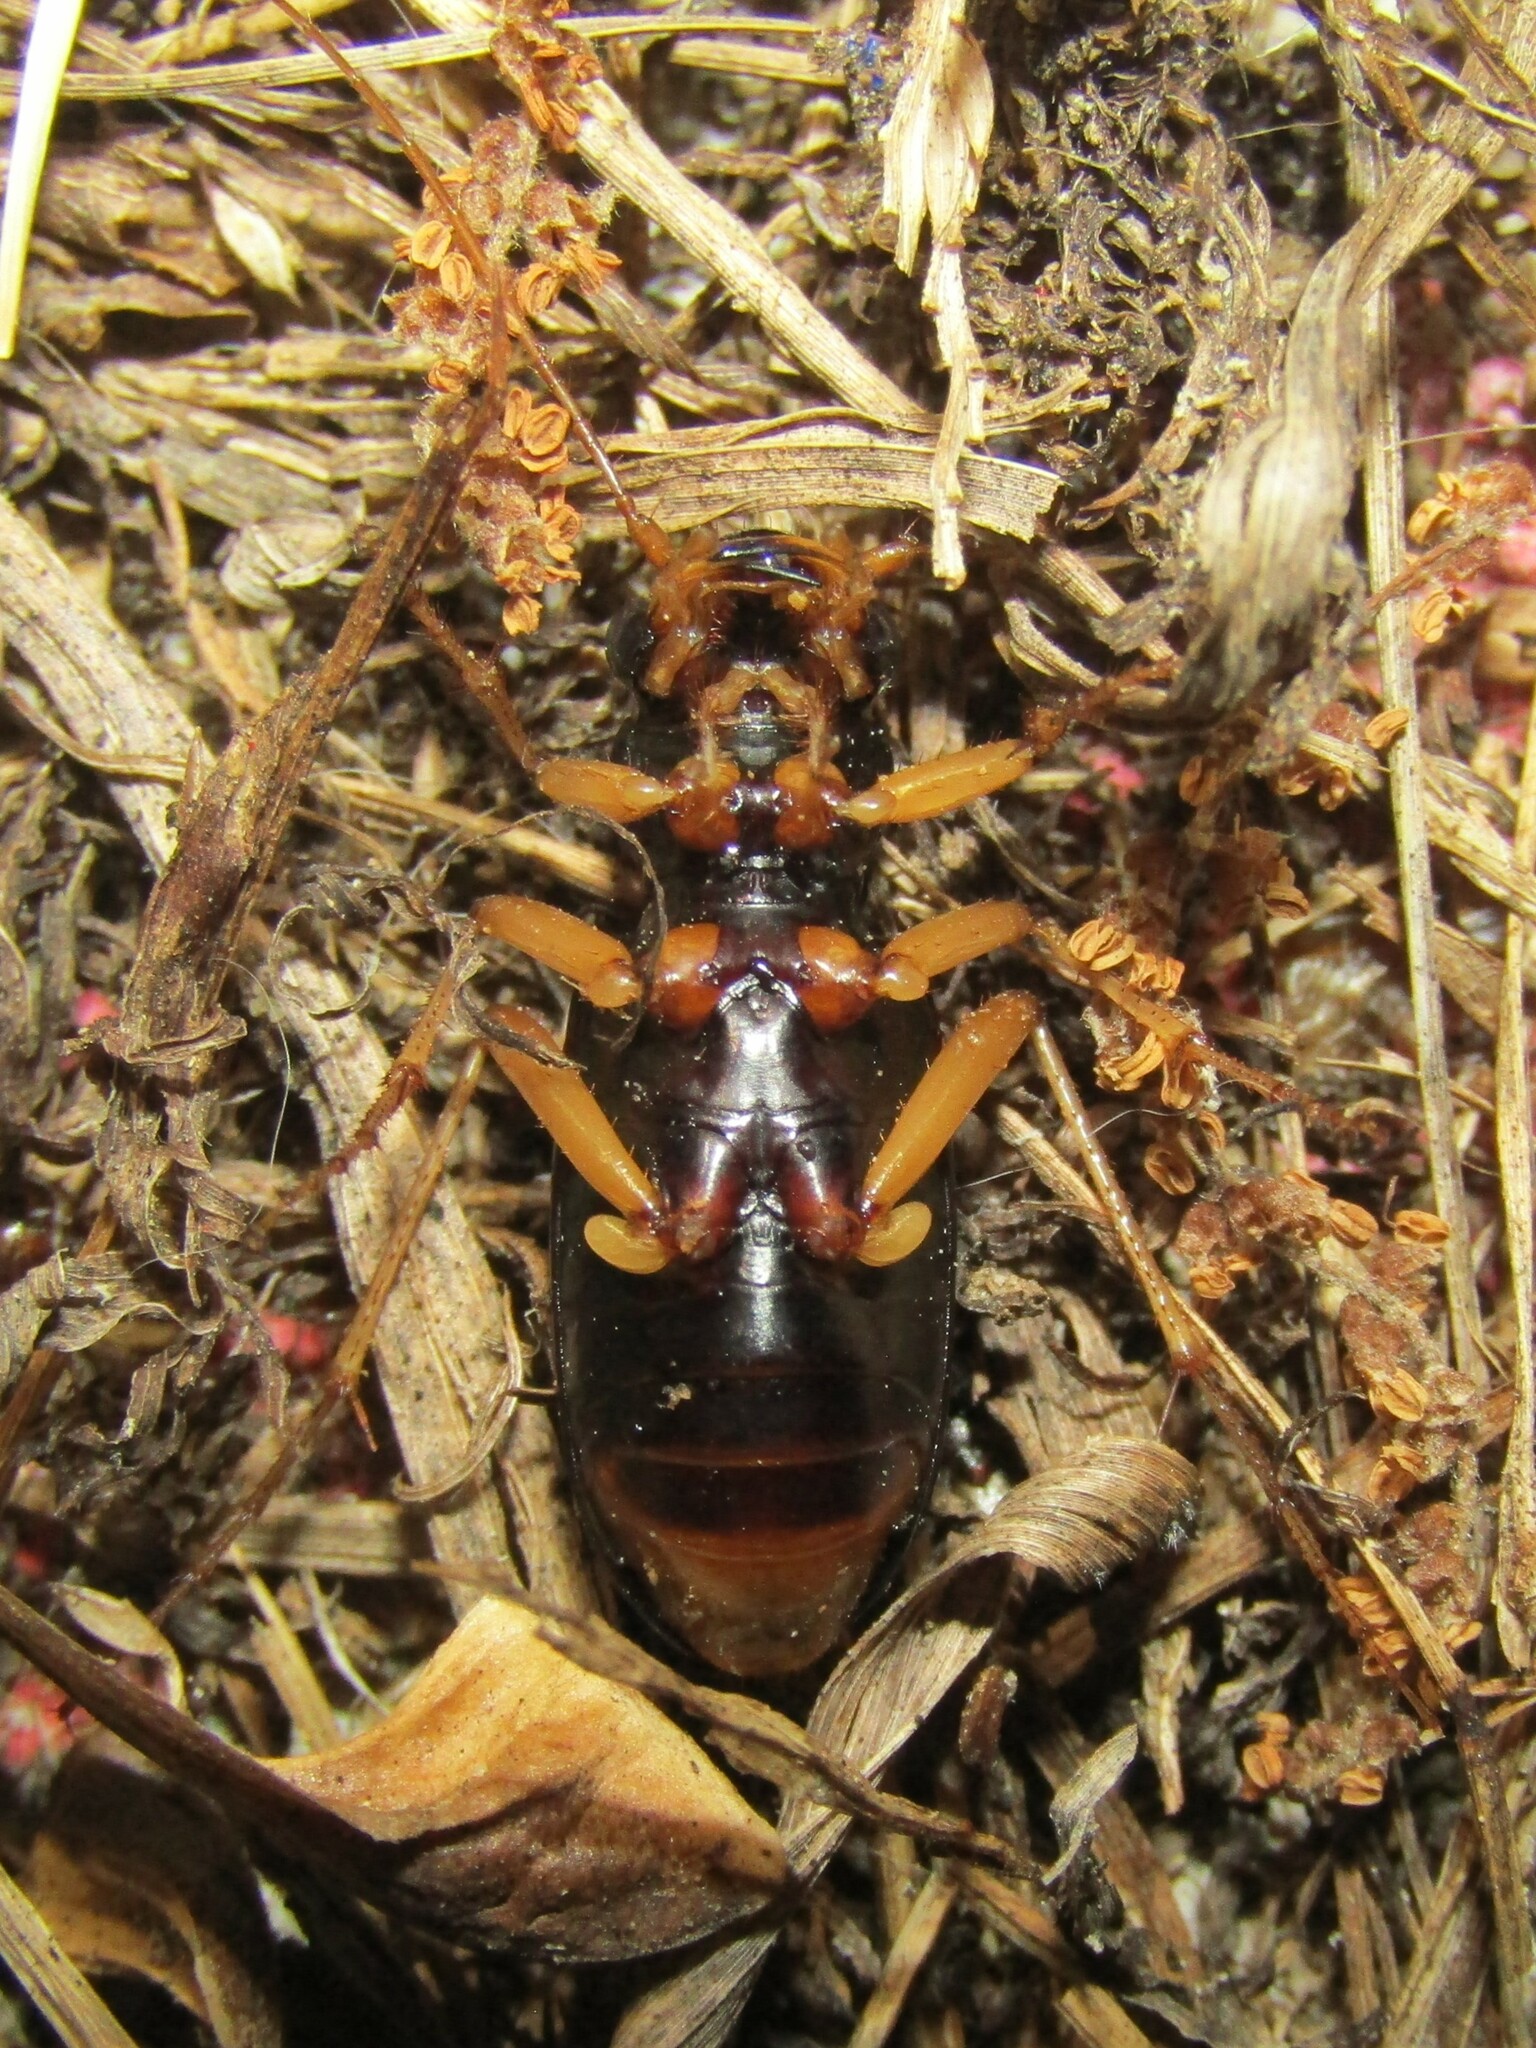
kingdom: Animalia
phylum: Arthropoda
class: Insecta
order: Coleoptera
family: Carabidae
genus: Tetracha
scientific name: Tetracha virginica
